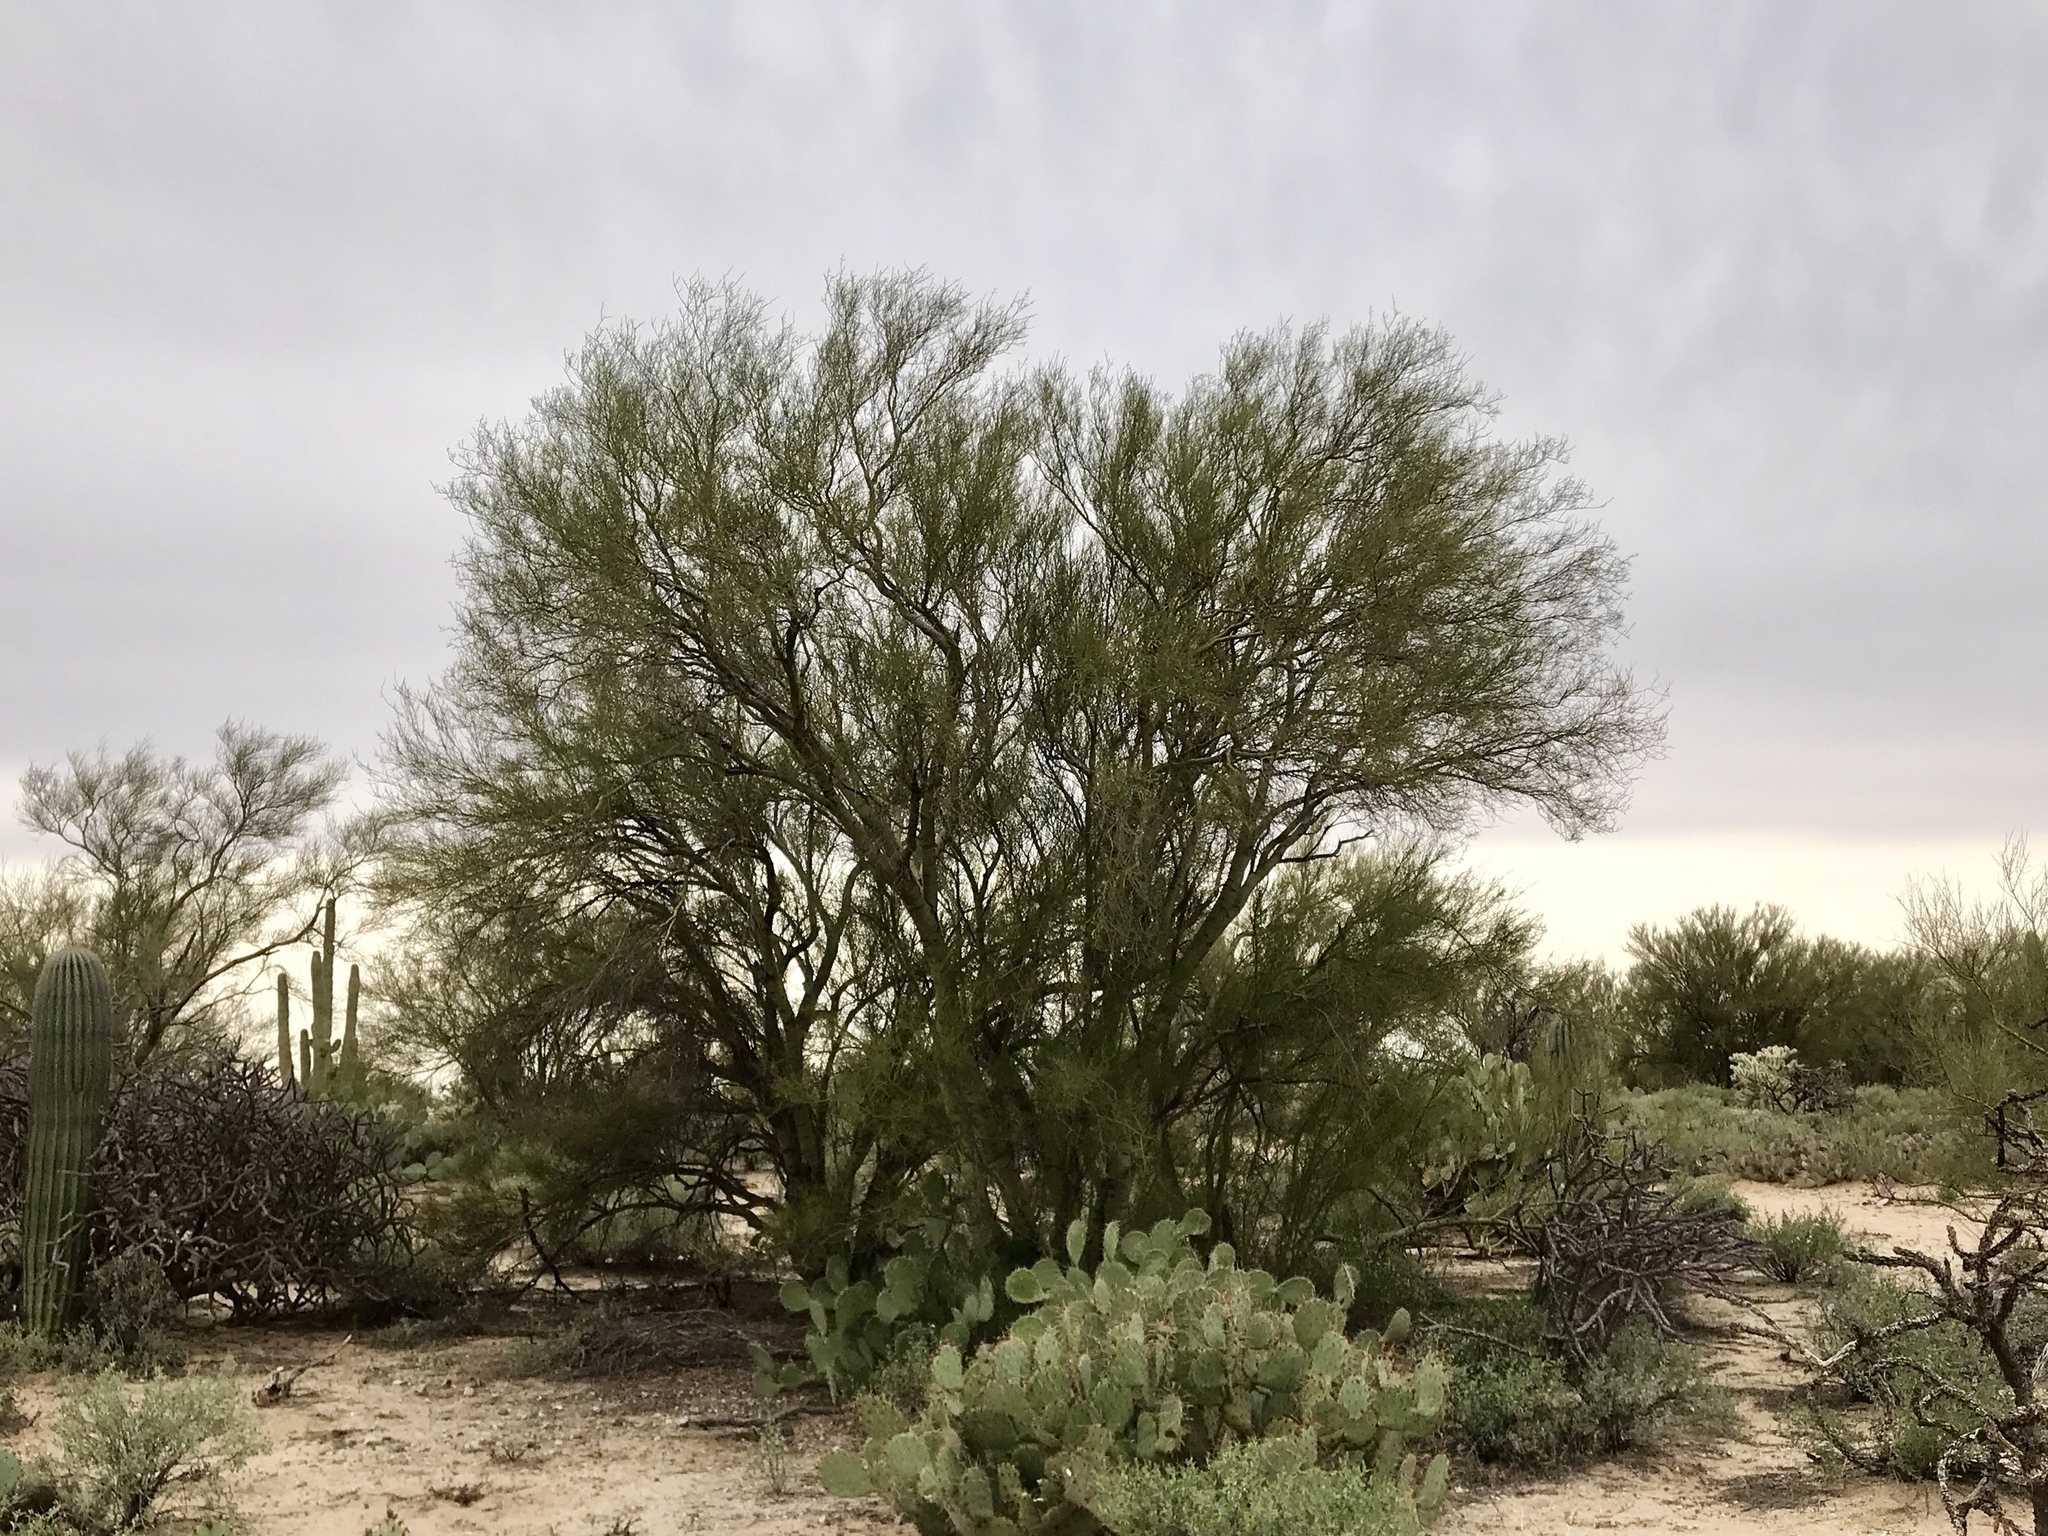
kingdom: Plantae
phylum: Tracheophyta
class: Magnoliopsida
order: Fabales
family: Fabaceae
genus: Parkinsonia
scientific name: Parkinsonia microphylla
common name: Yellow paloverde
